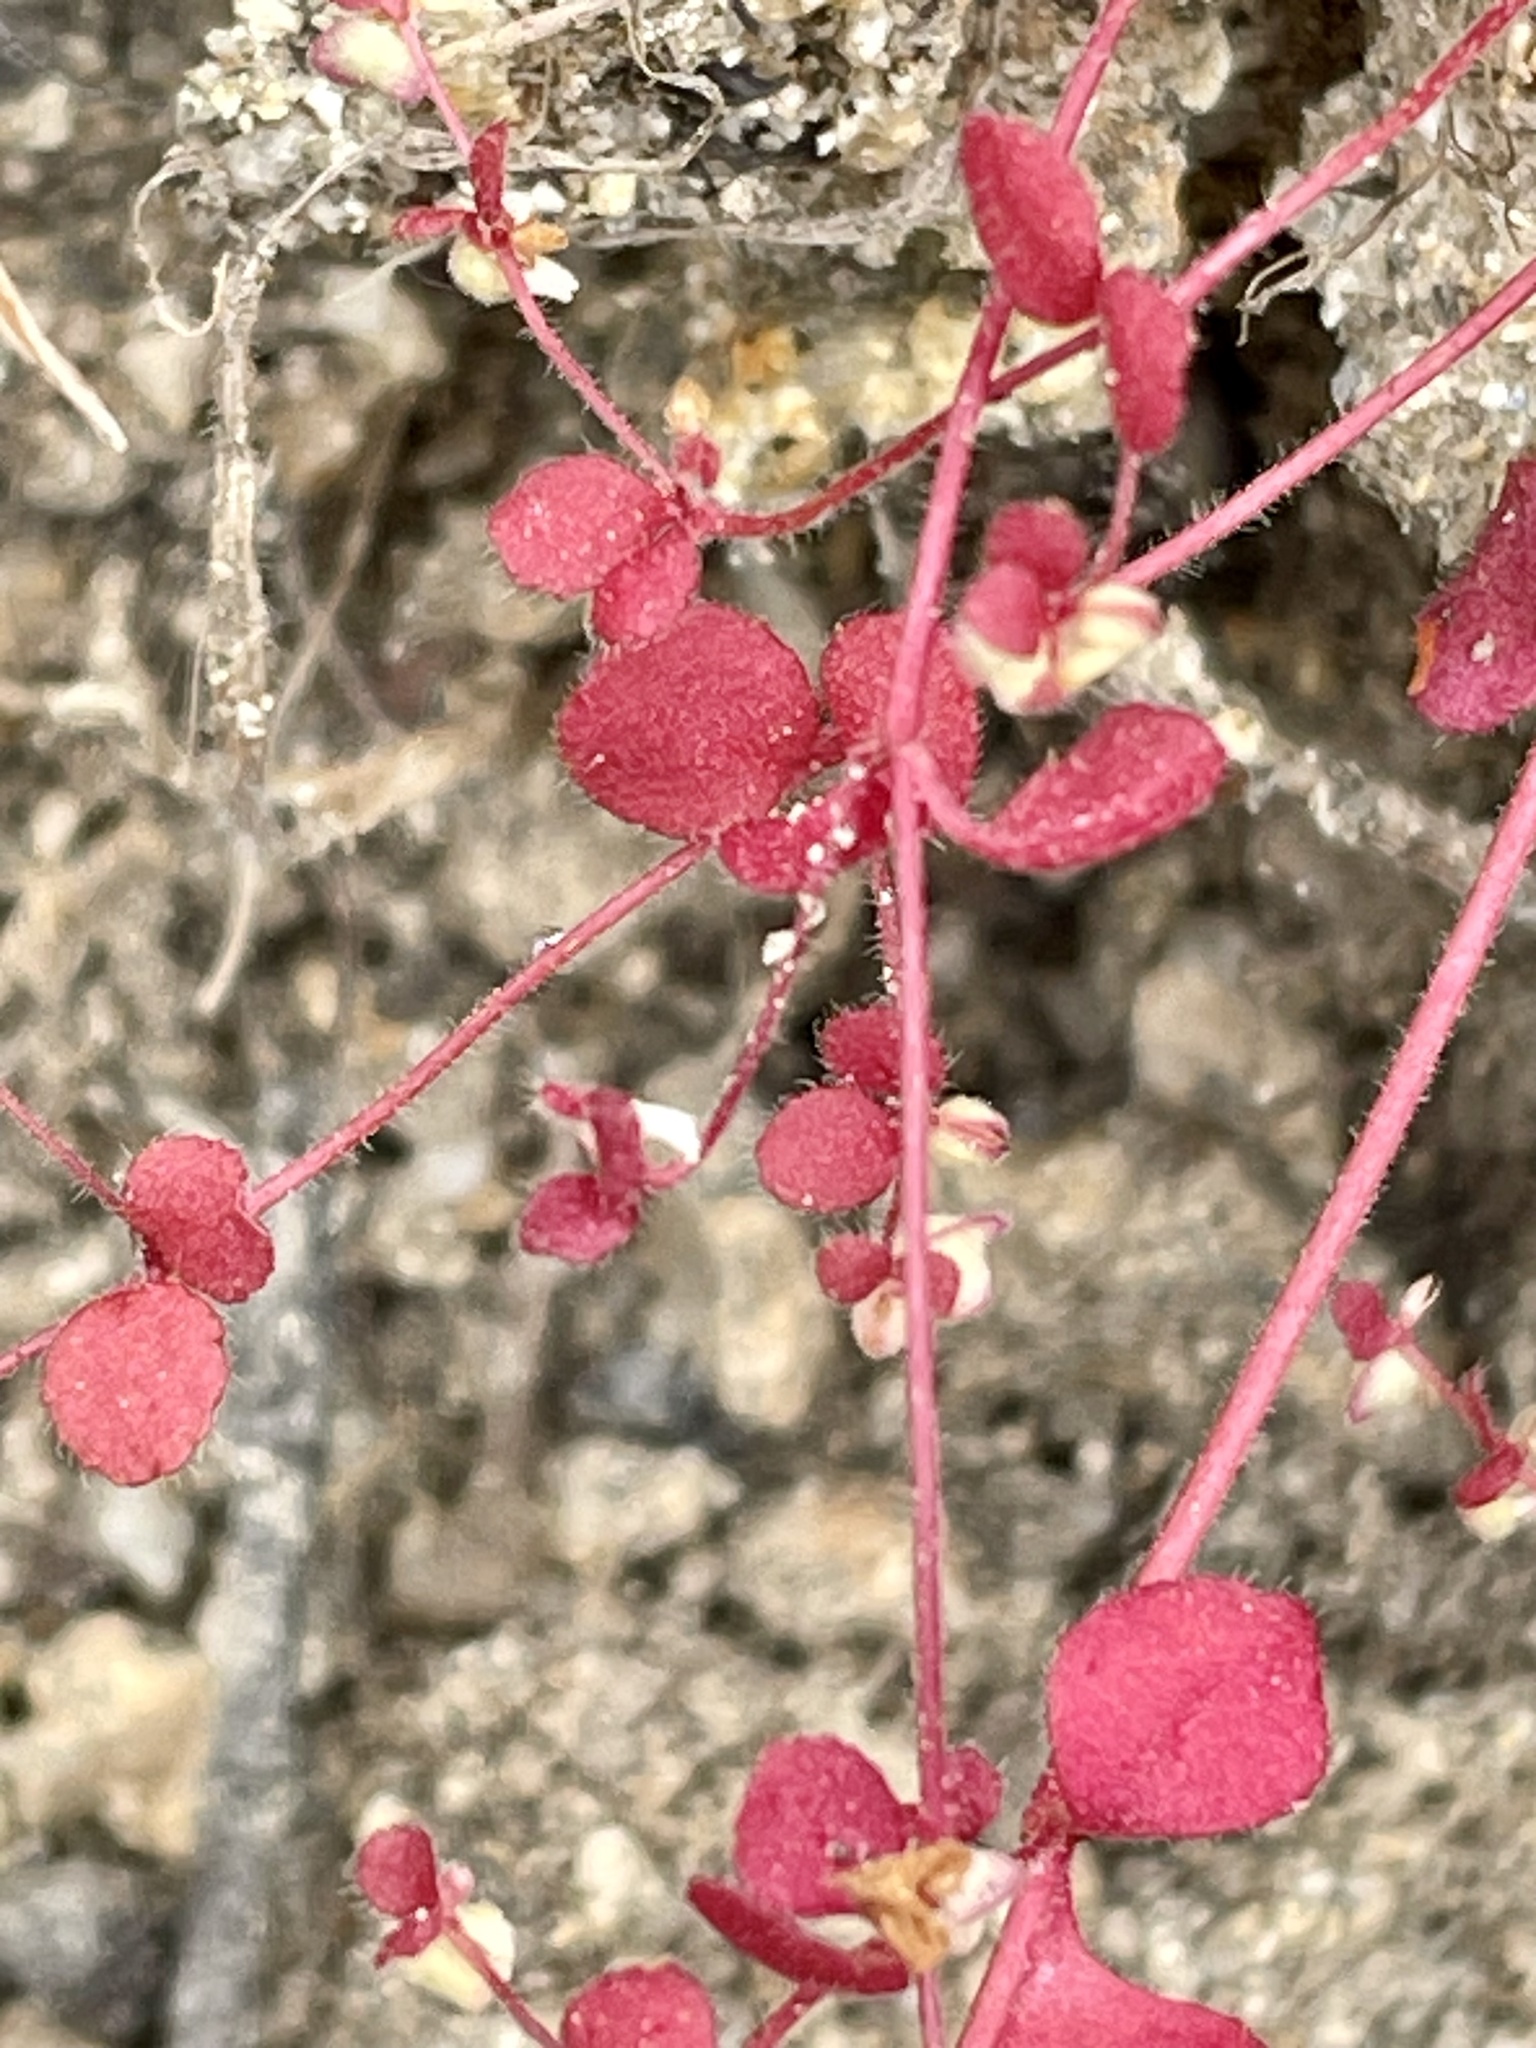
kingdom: Plantae
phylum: Tracheophyta
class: Magnoliopsida
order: Caryophyllales
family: Polygonaceae
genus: Pterostegia
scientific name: Pterostegia drymarioides
